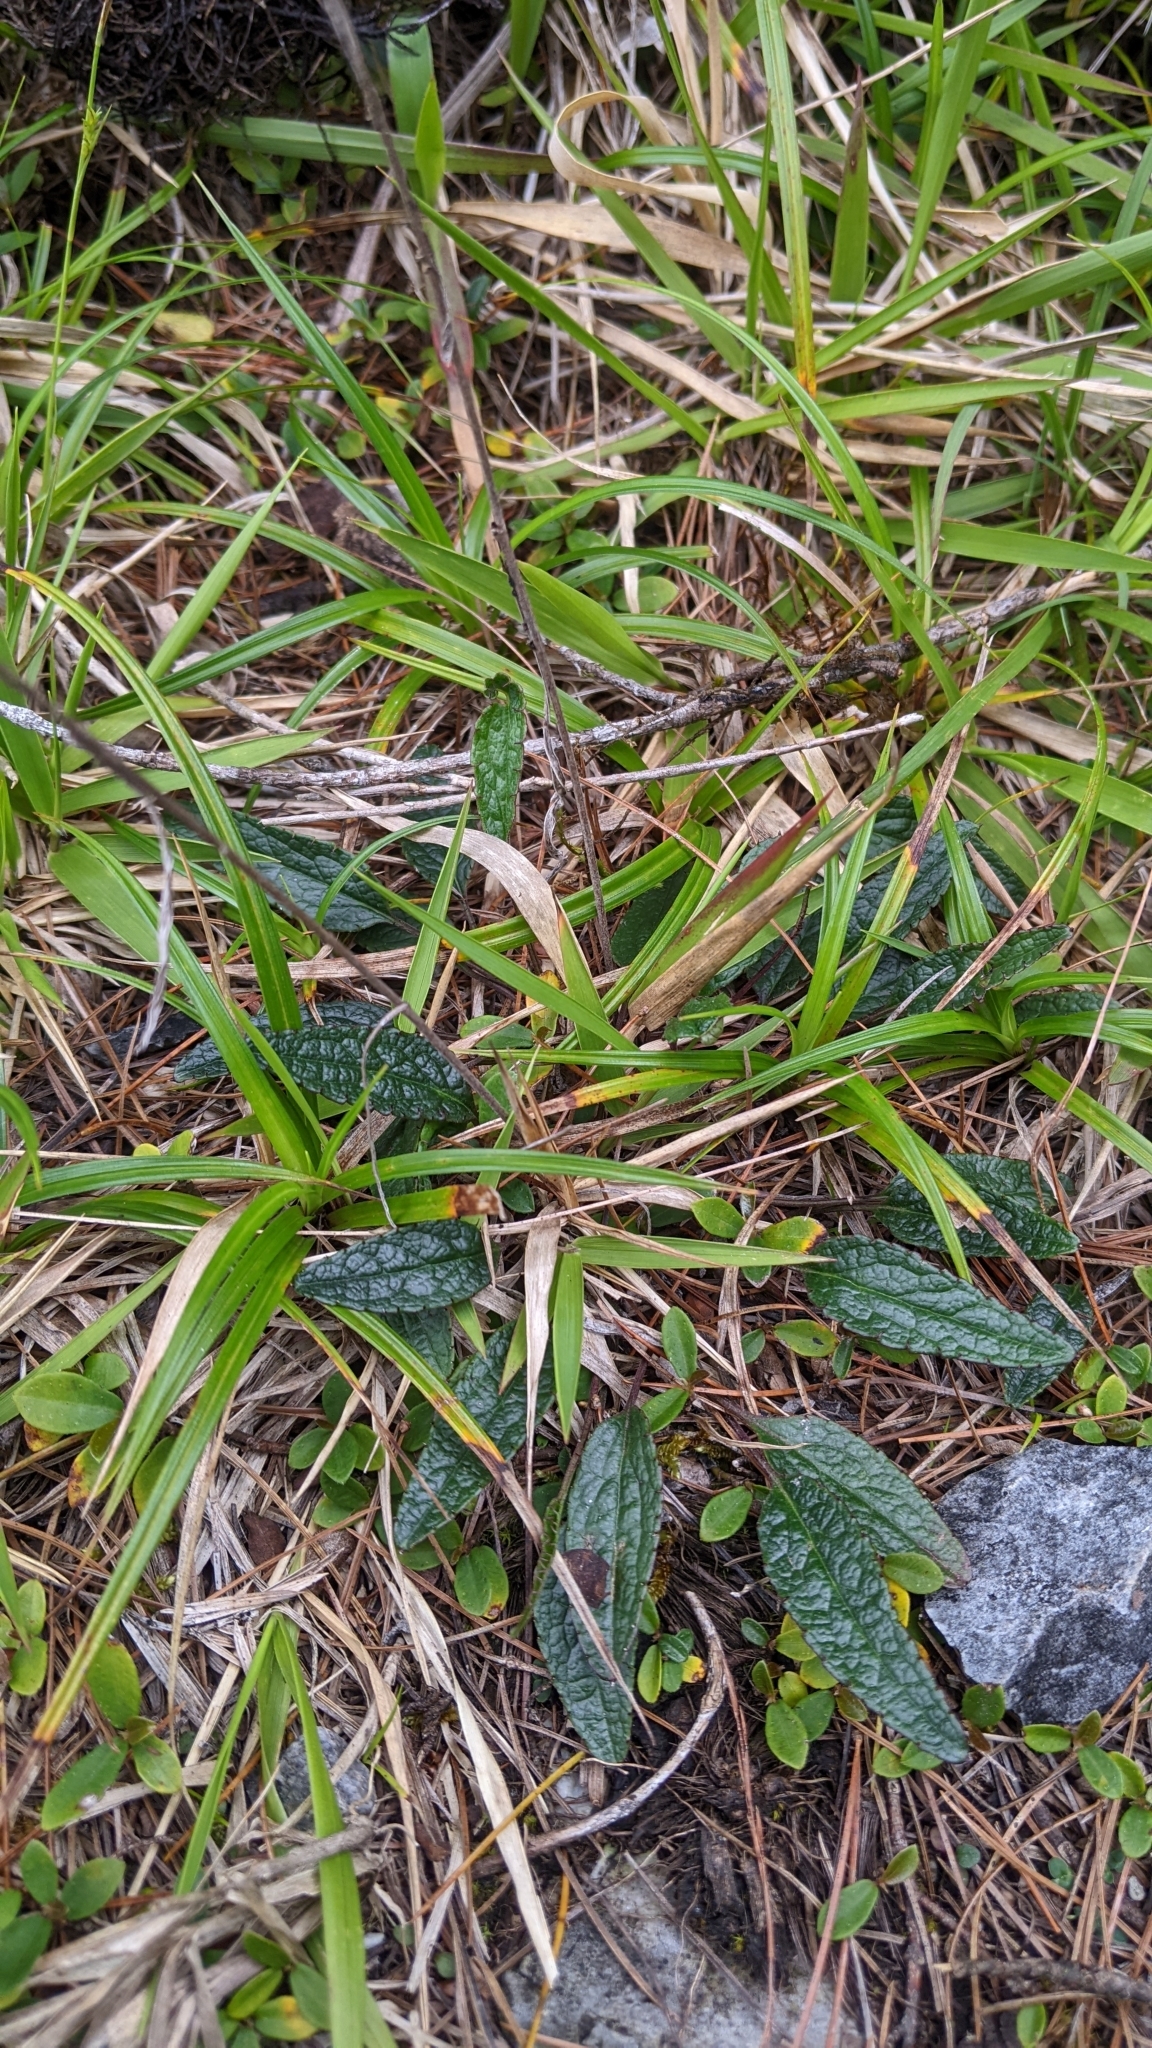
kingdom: Plantae
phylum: Tracheophyta
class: Magnoliopsida
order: Asterales
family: Asteraceae
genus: Ixeridium
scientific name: Ixeridium calcicola
